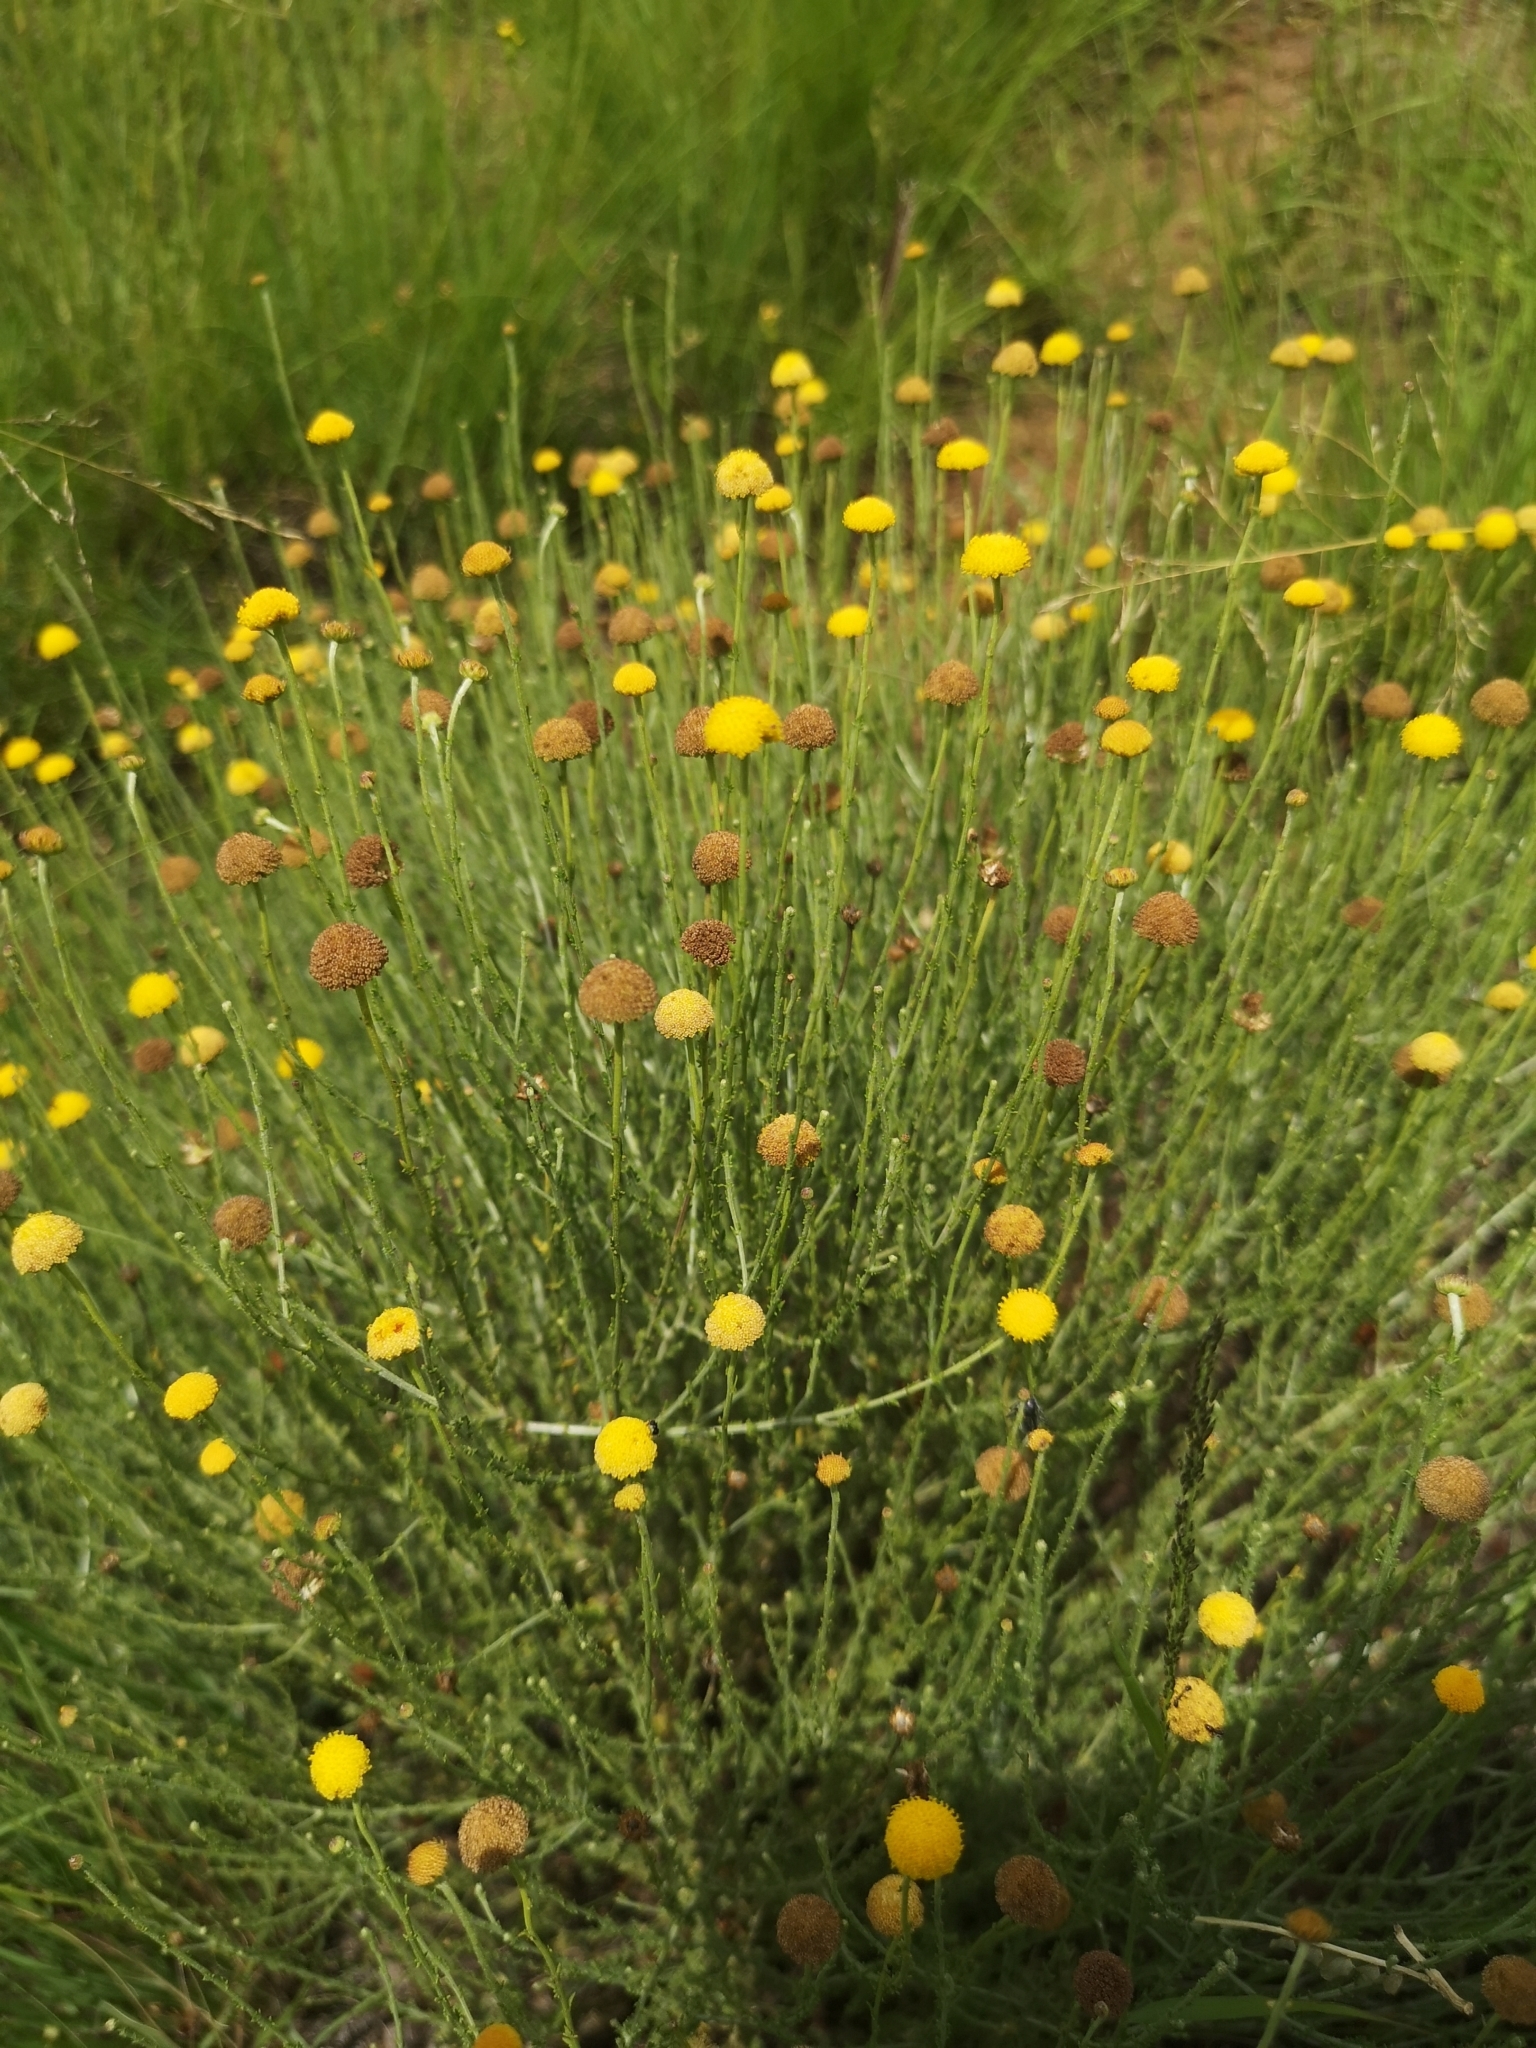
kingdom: Plantae
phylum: Tracheophyta
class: Magnoliopsida
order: Asterales
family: Asteraceae
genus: Pentzia
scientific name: Pentzia globosa
